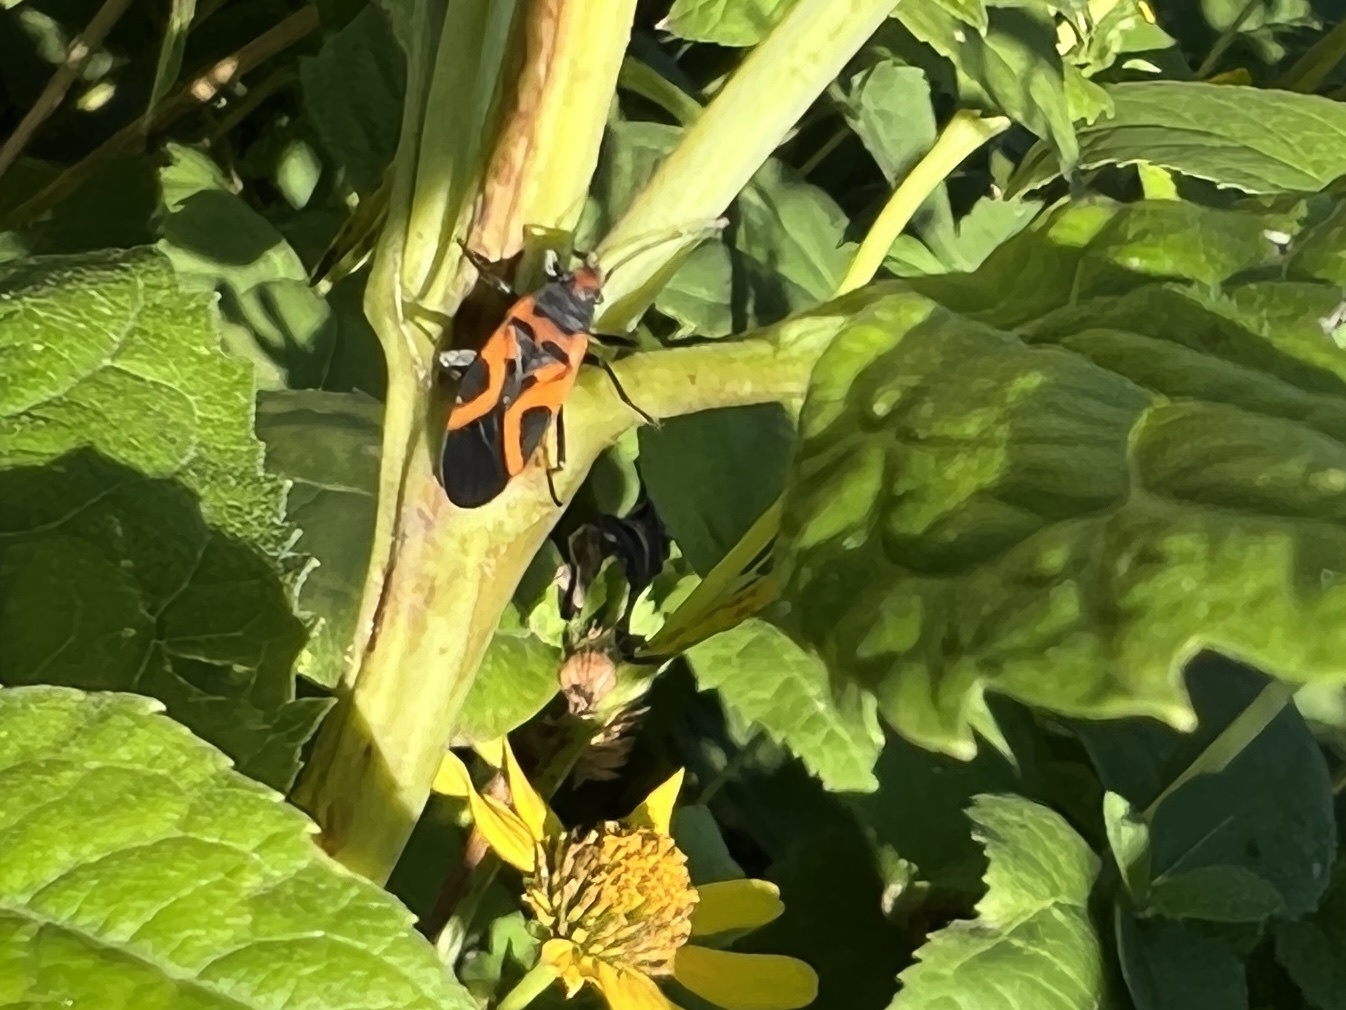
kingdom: Animalia
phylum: Arthropoda
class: Insecta
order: Hemiptera
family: Lygaeidae
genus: Lygaeus
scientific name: Lygaeus turcicus
